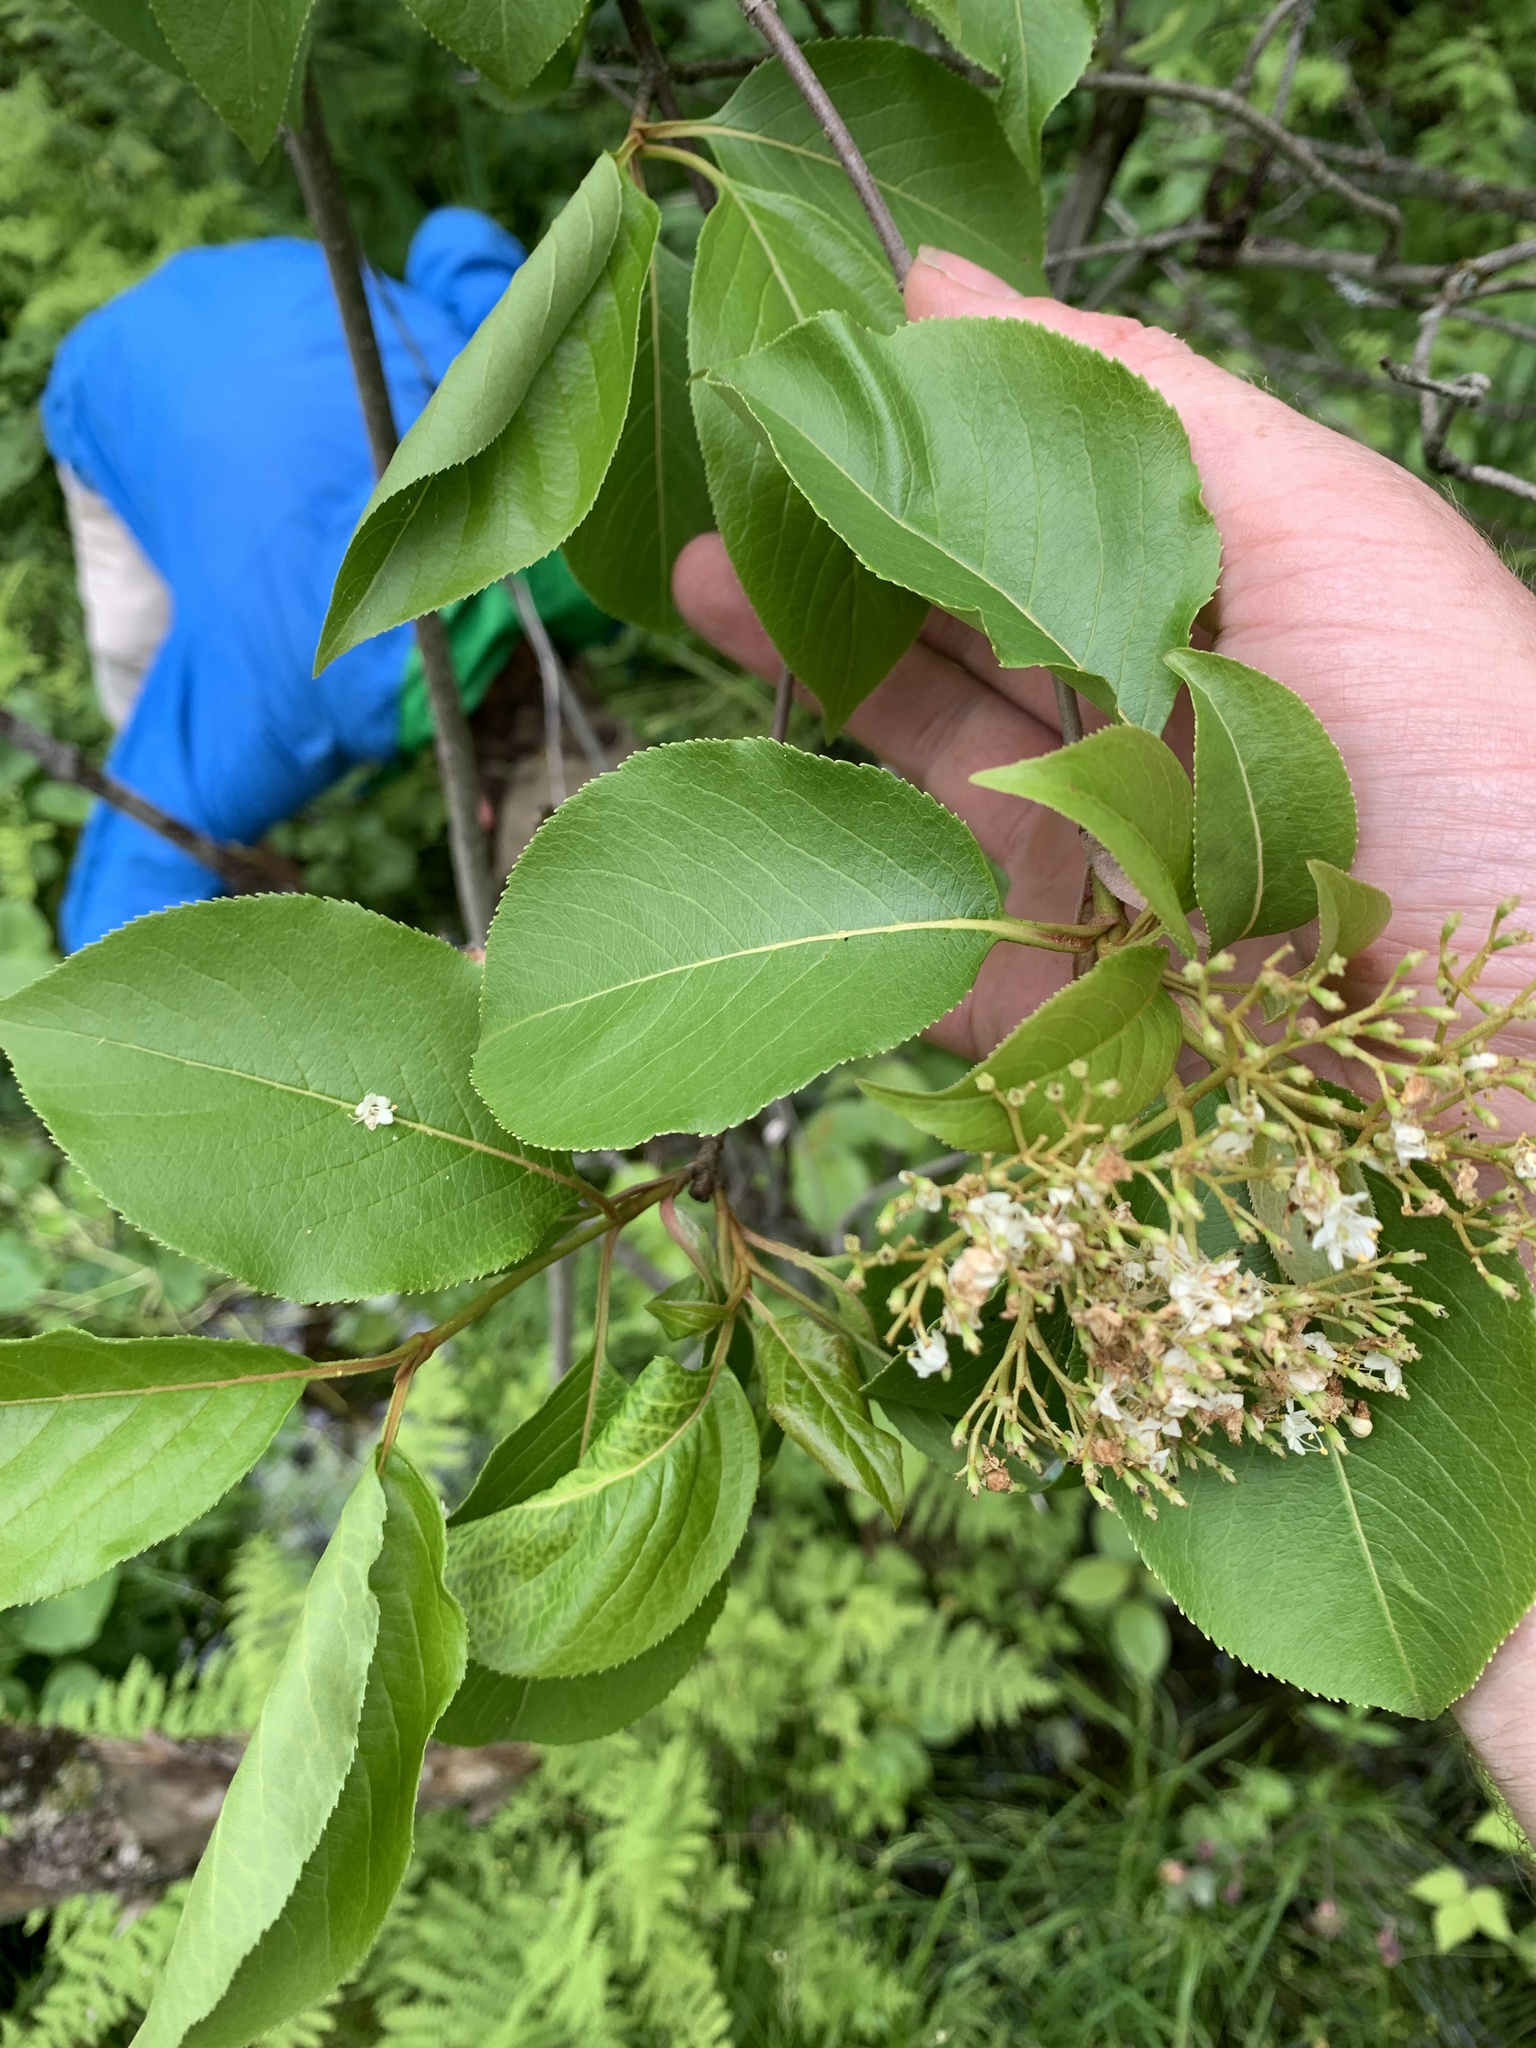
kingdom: Plantae
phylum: Tracheophyta
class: Magnoliopsida
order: Dipsacales
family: Viburnaceae
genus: Viburnum
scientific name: Viburnum lentago
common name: Black haw
